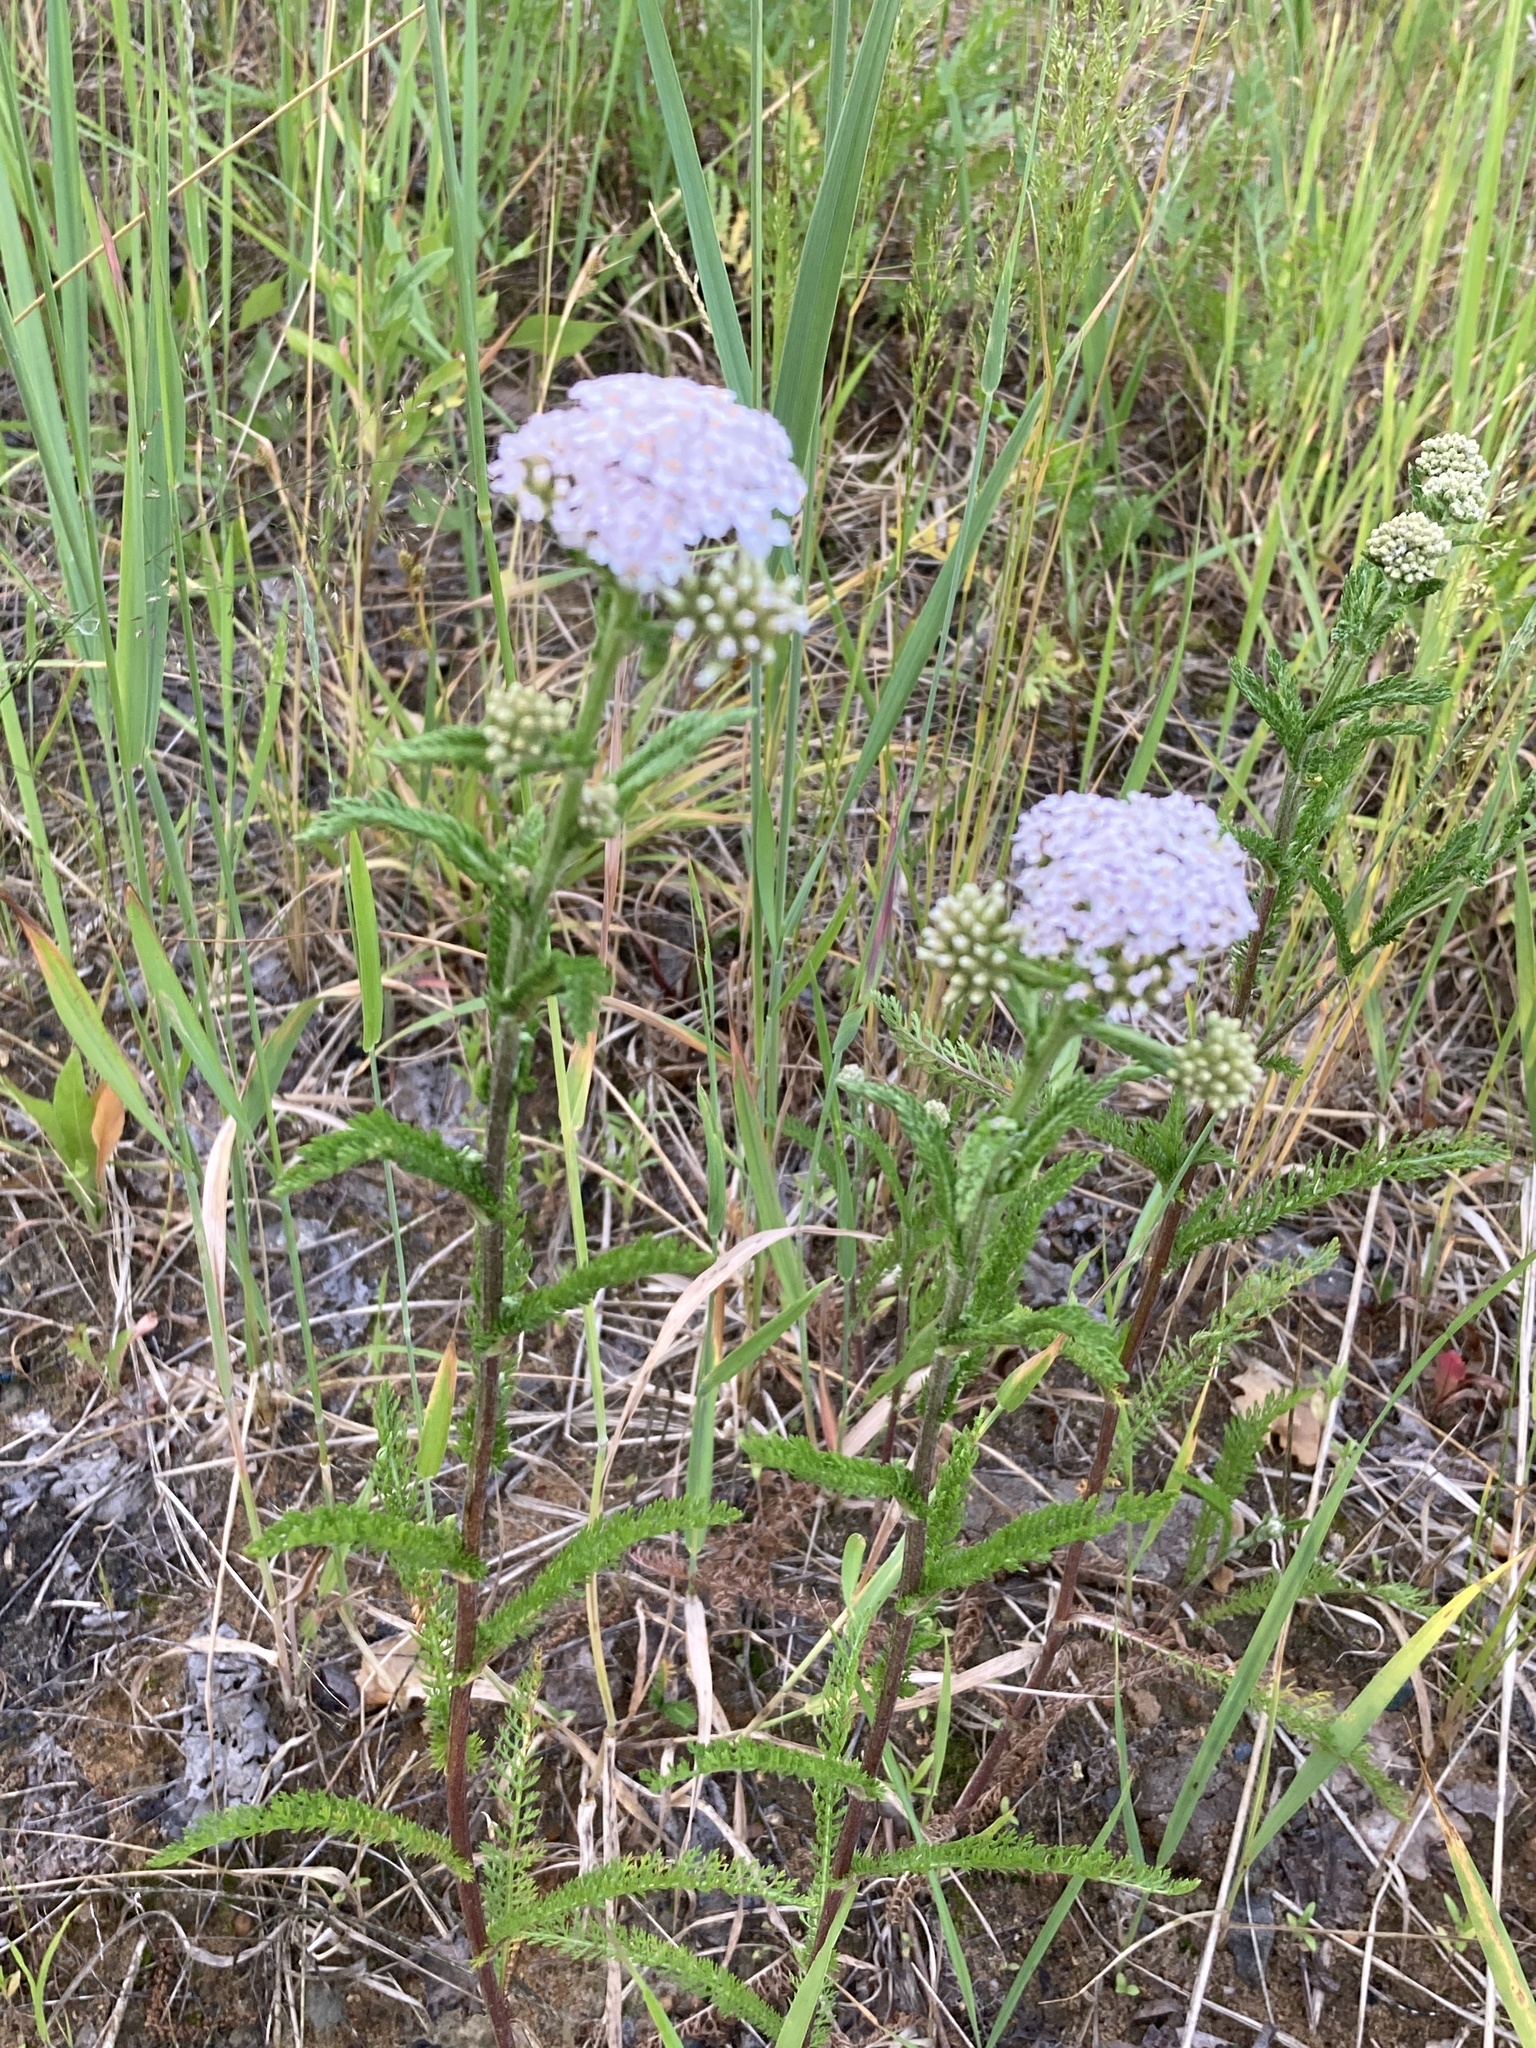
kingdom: Plantae
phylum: Tracheophyta
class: Magnoliopsida
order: Asterales
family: Asteraceae
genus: Achillea
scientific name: Achillea millefolium
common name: Yarrow
